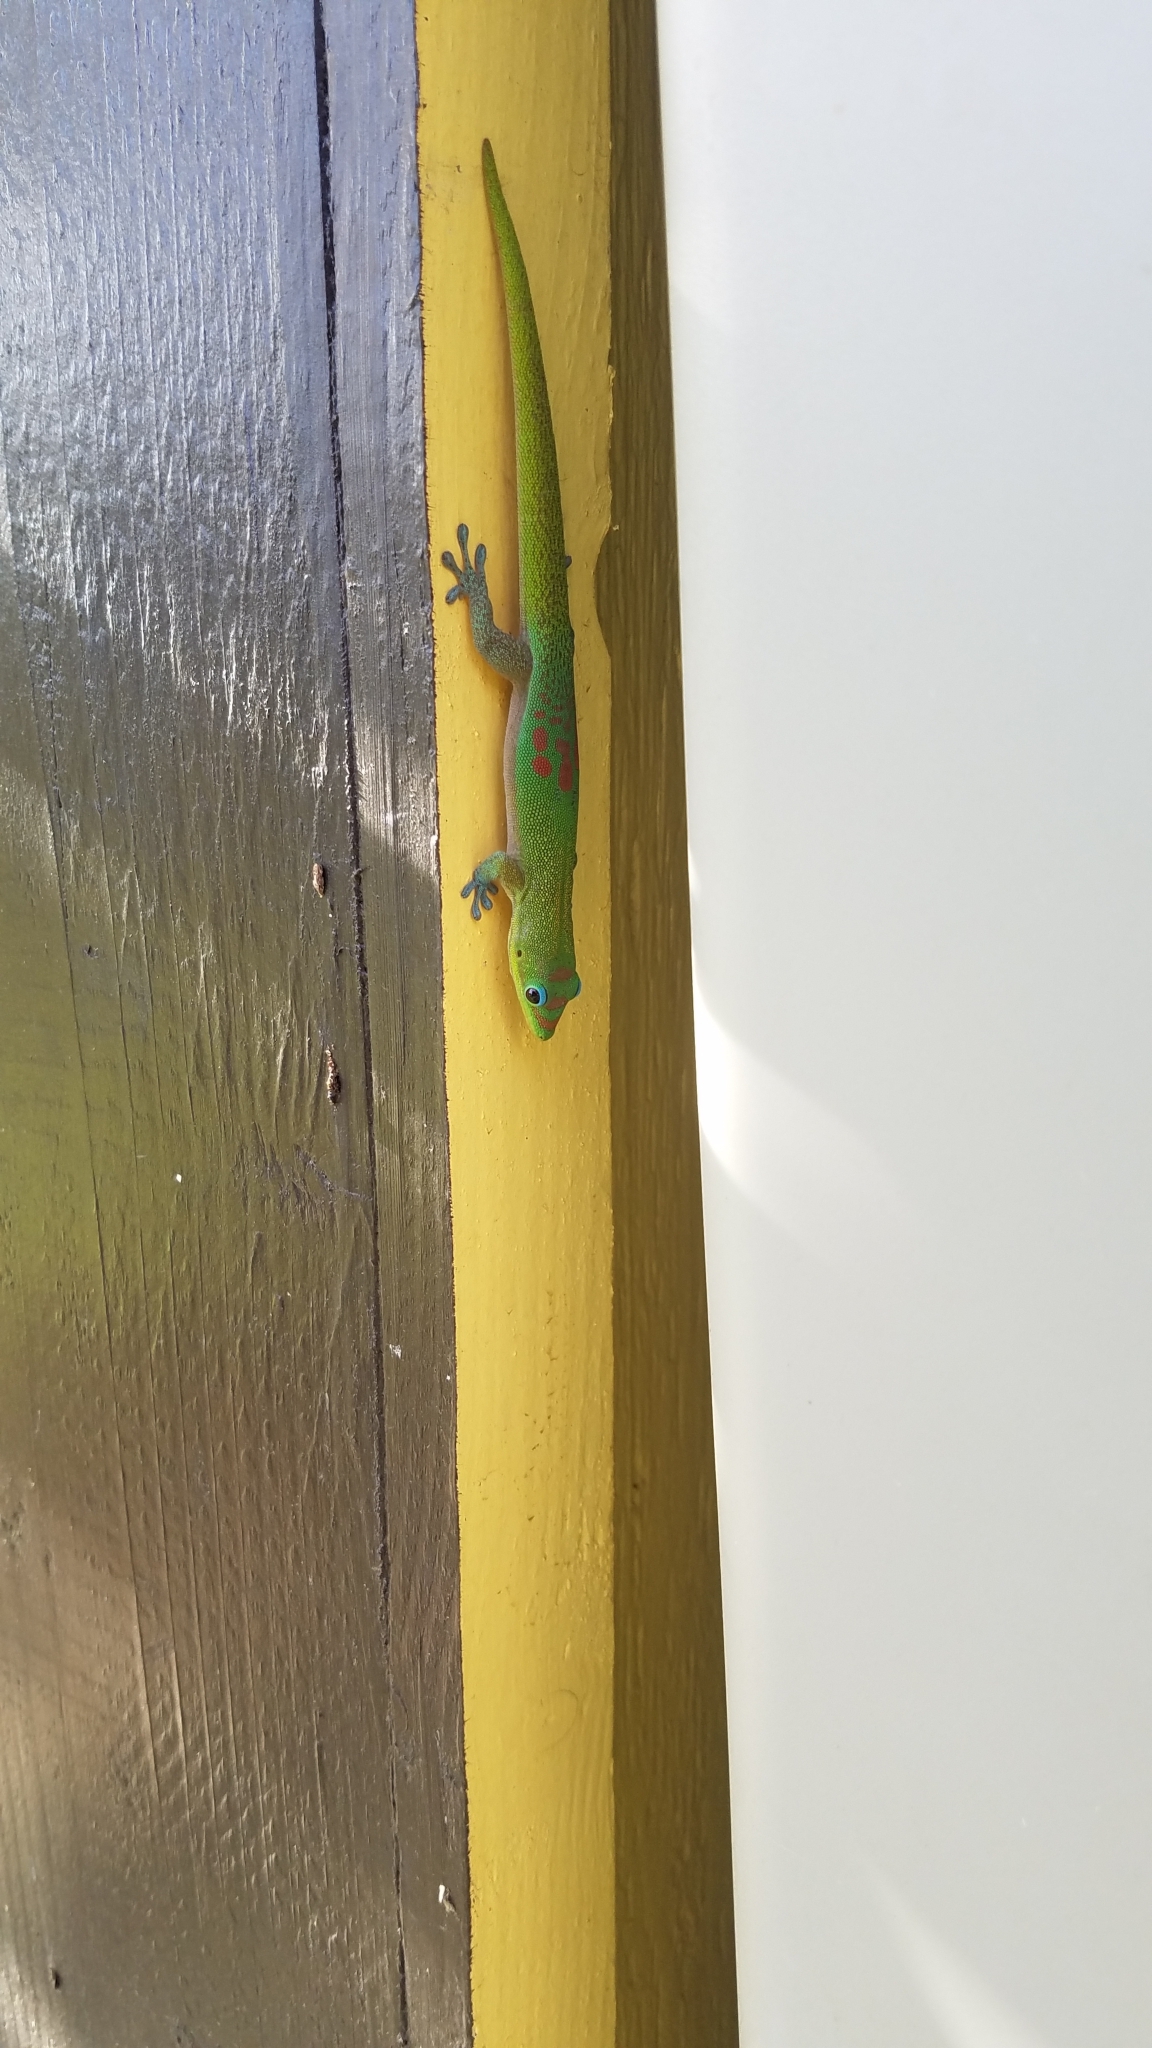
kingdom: Animalia
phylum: Chordata
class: Squamata
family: Gekkonidae
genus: Phelsuma
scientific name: Phelsuma laticauda
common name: Gold dust day gecko
